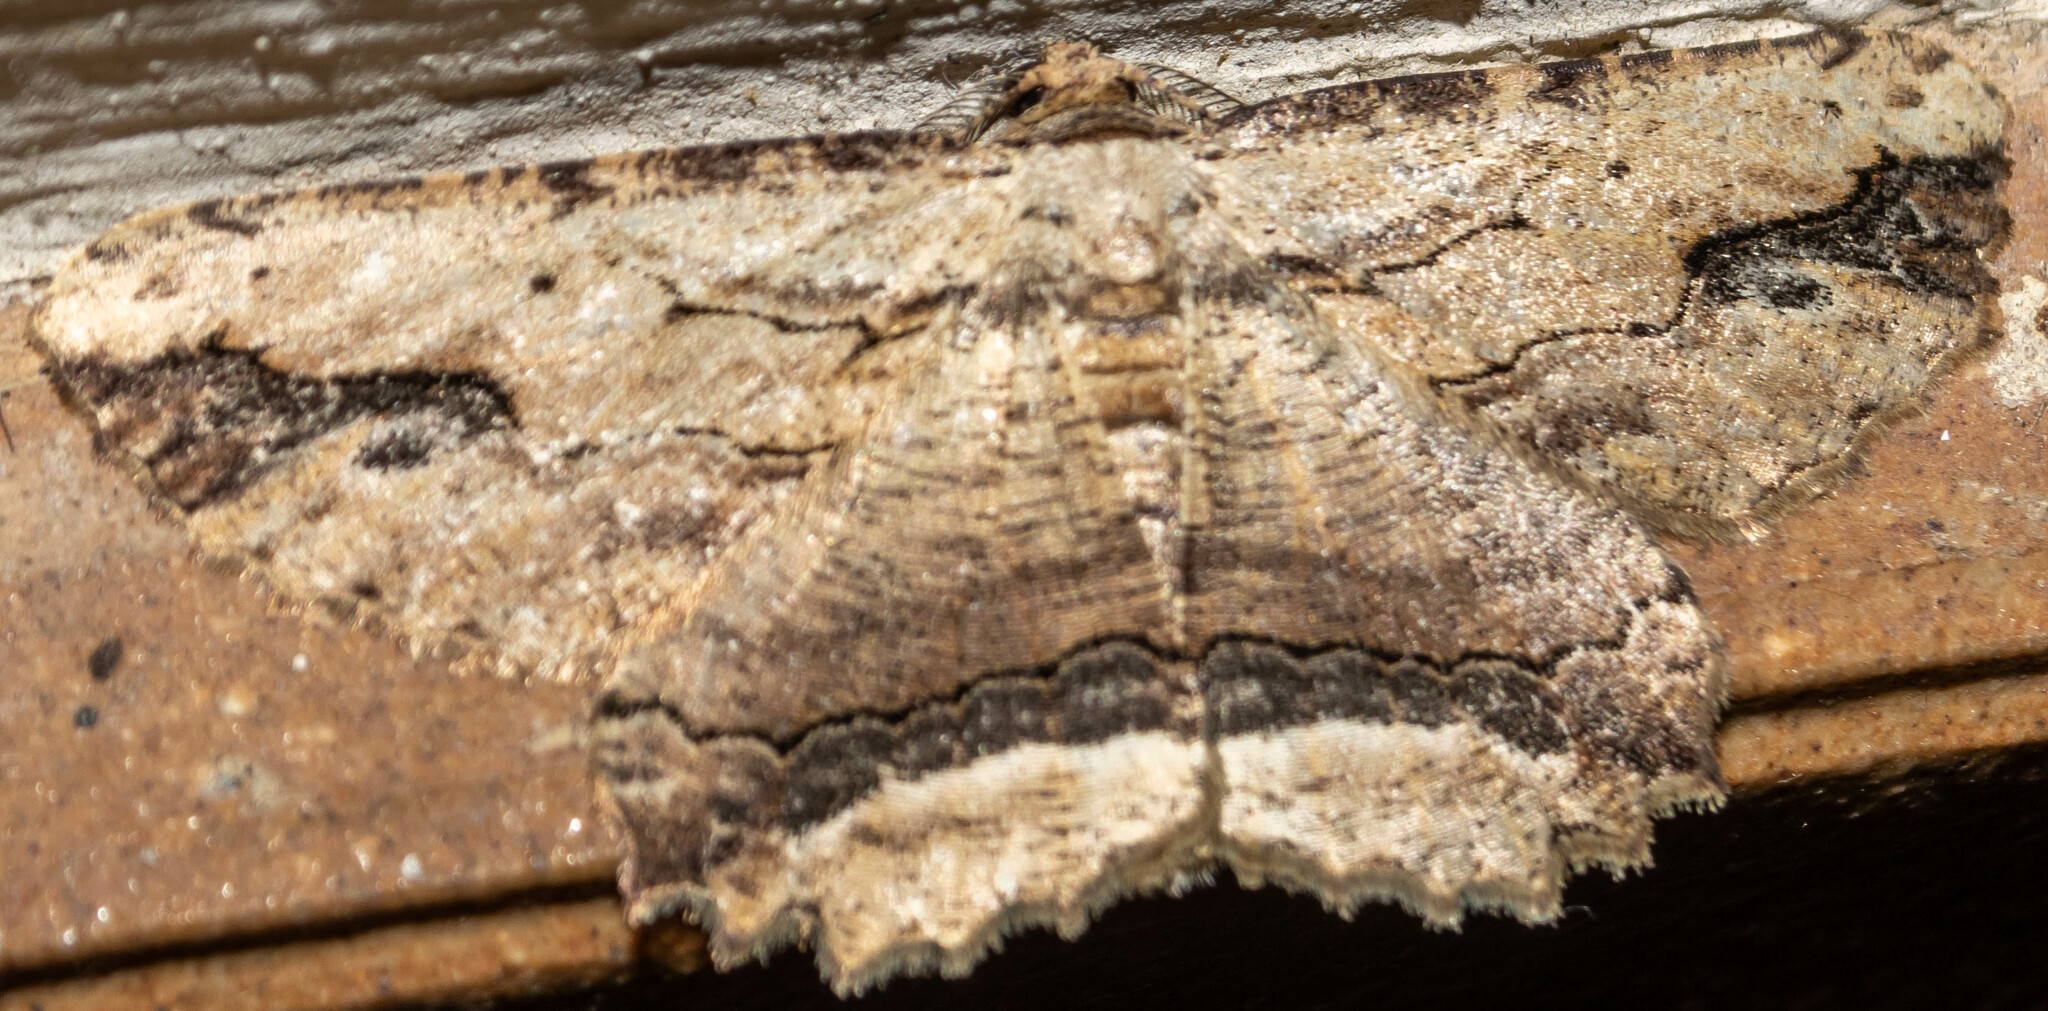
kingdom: Animalia
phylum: Arthropoda
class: Insecta
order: Lepidoptera
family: Geometridae
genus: Menophra
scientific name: Menophra abruptaria
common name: Waved umber
